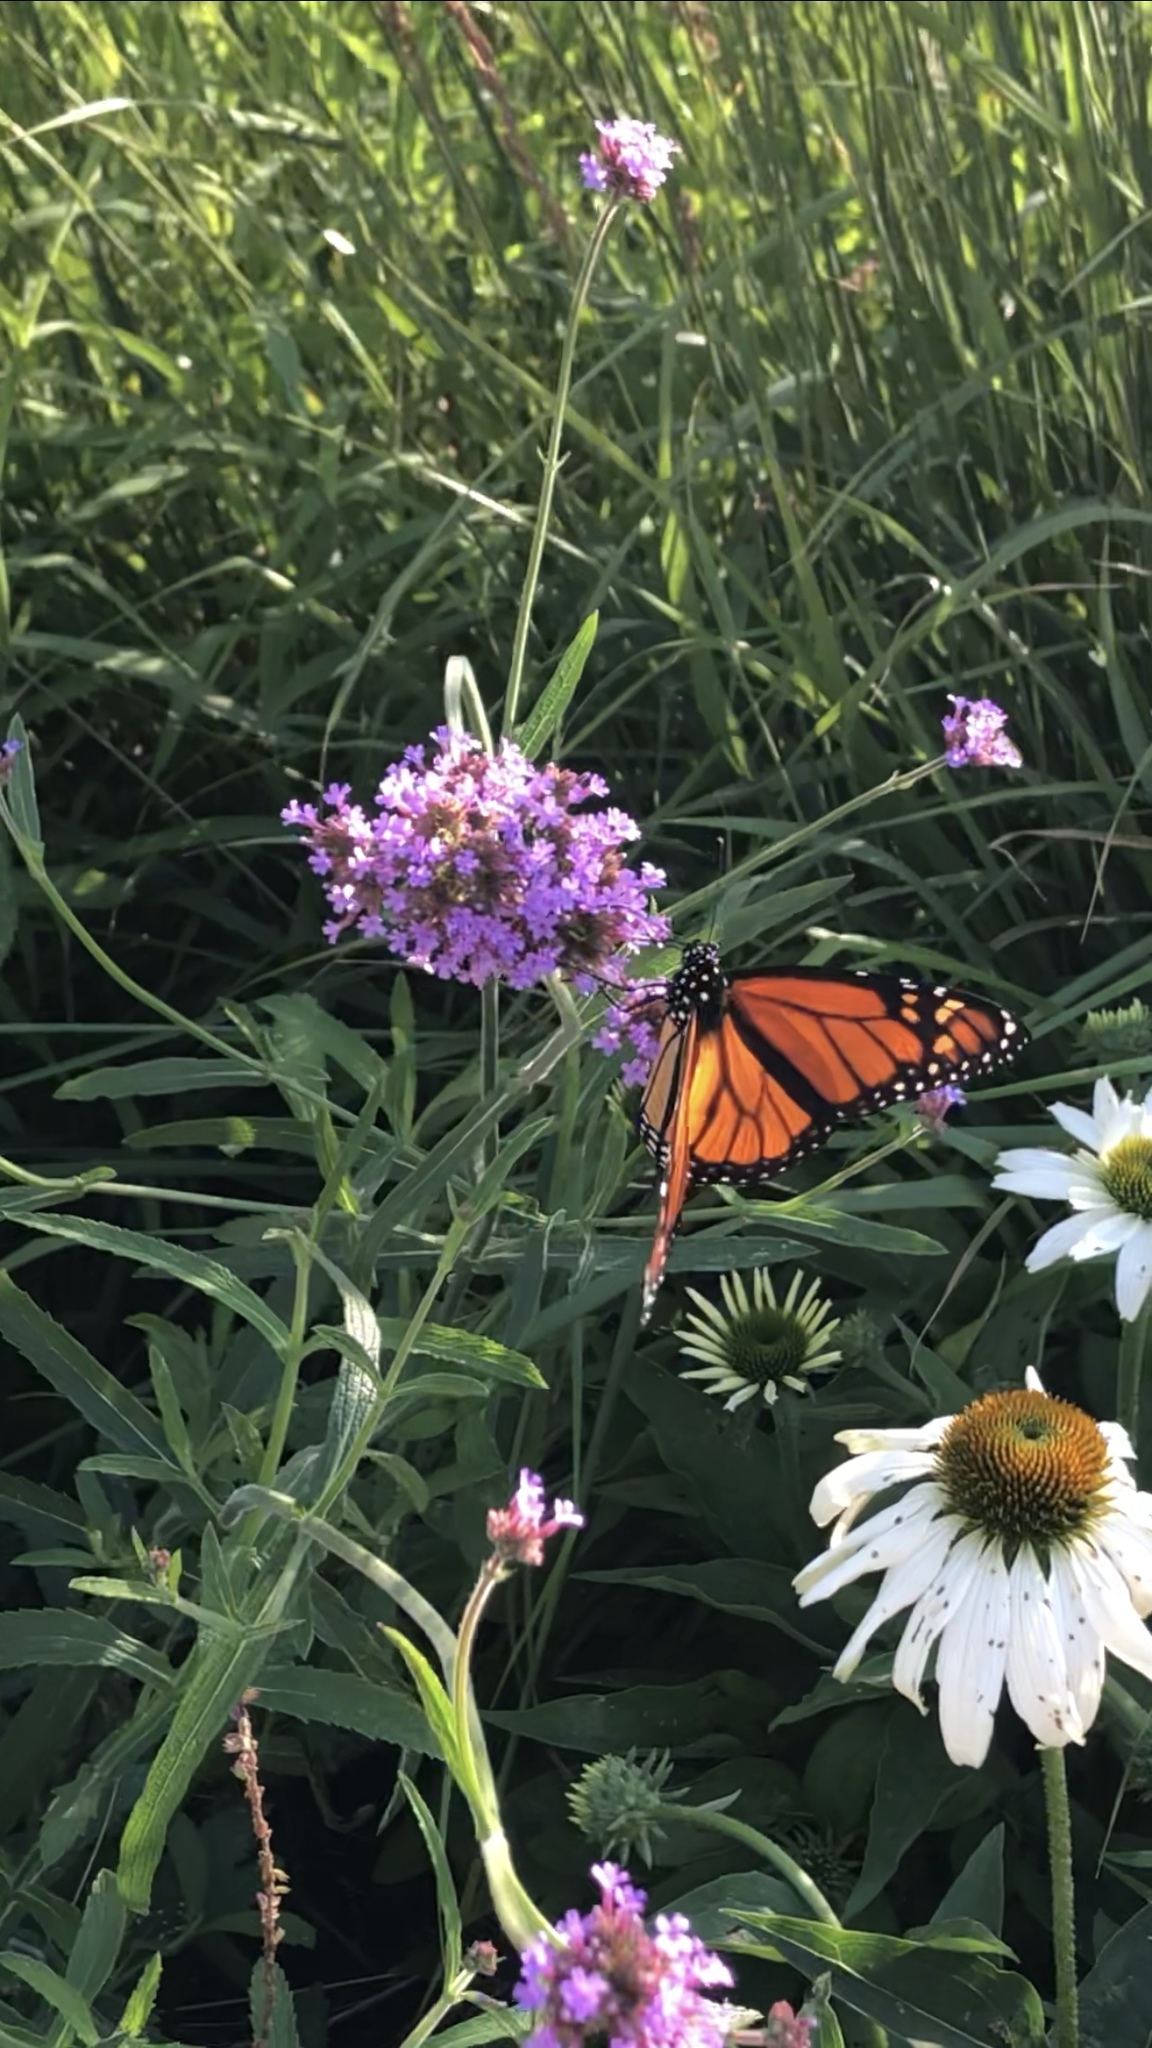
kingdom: Animalia
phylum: Arthropoda
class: Insecta
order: Lepidoptera
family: Nymphalidae
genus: Danaus
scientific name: Danaus plexippus
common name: Monarch
